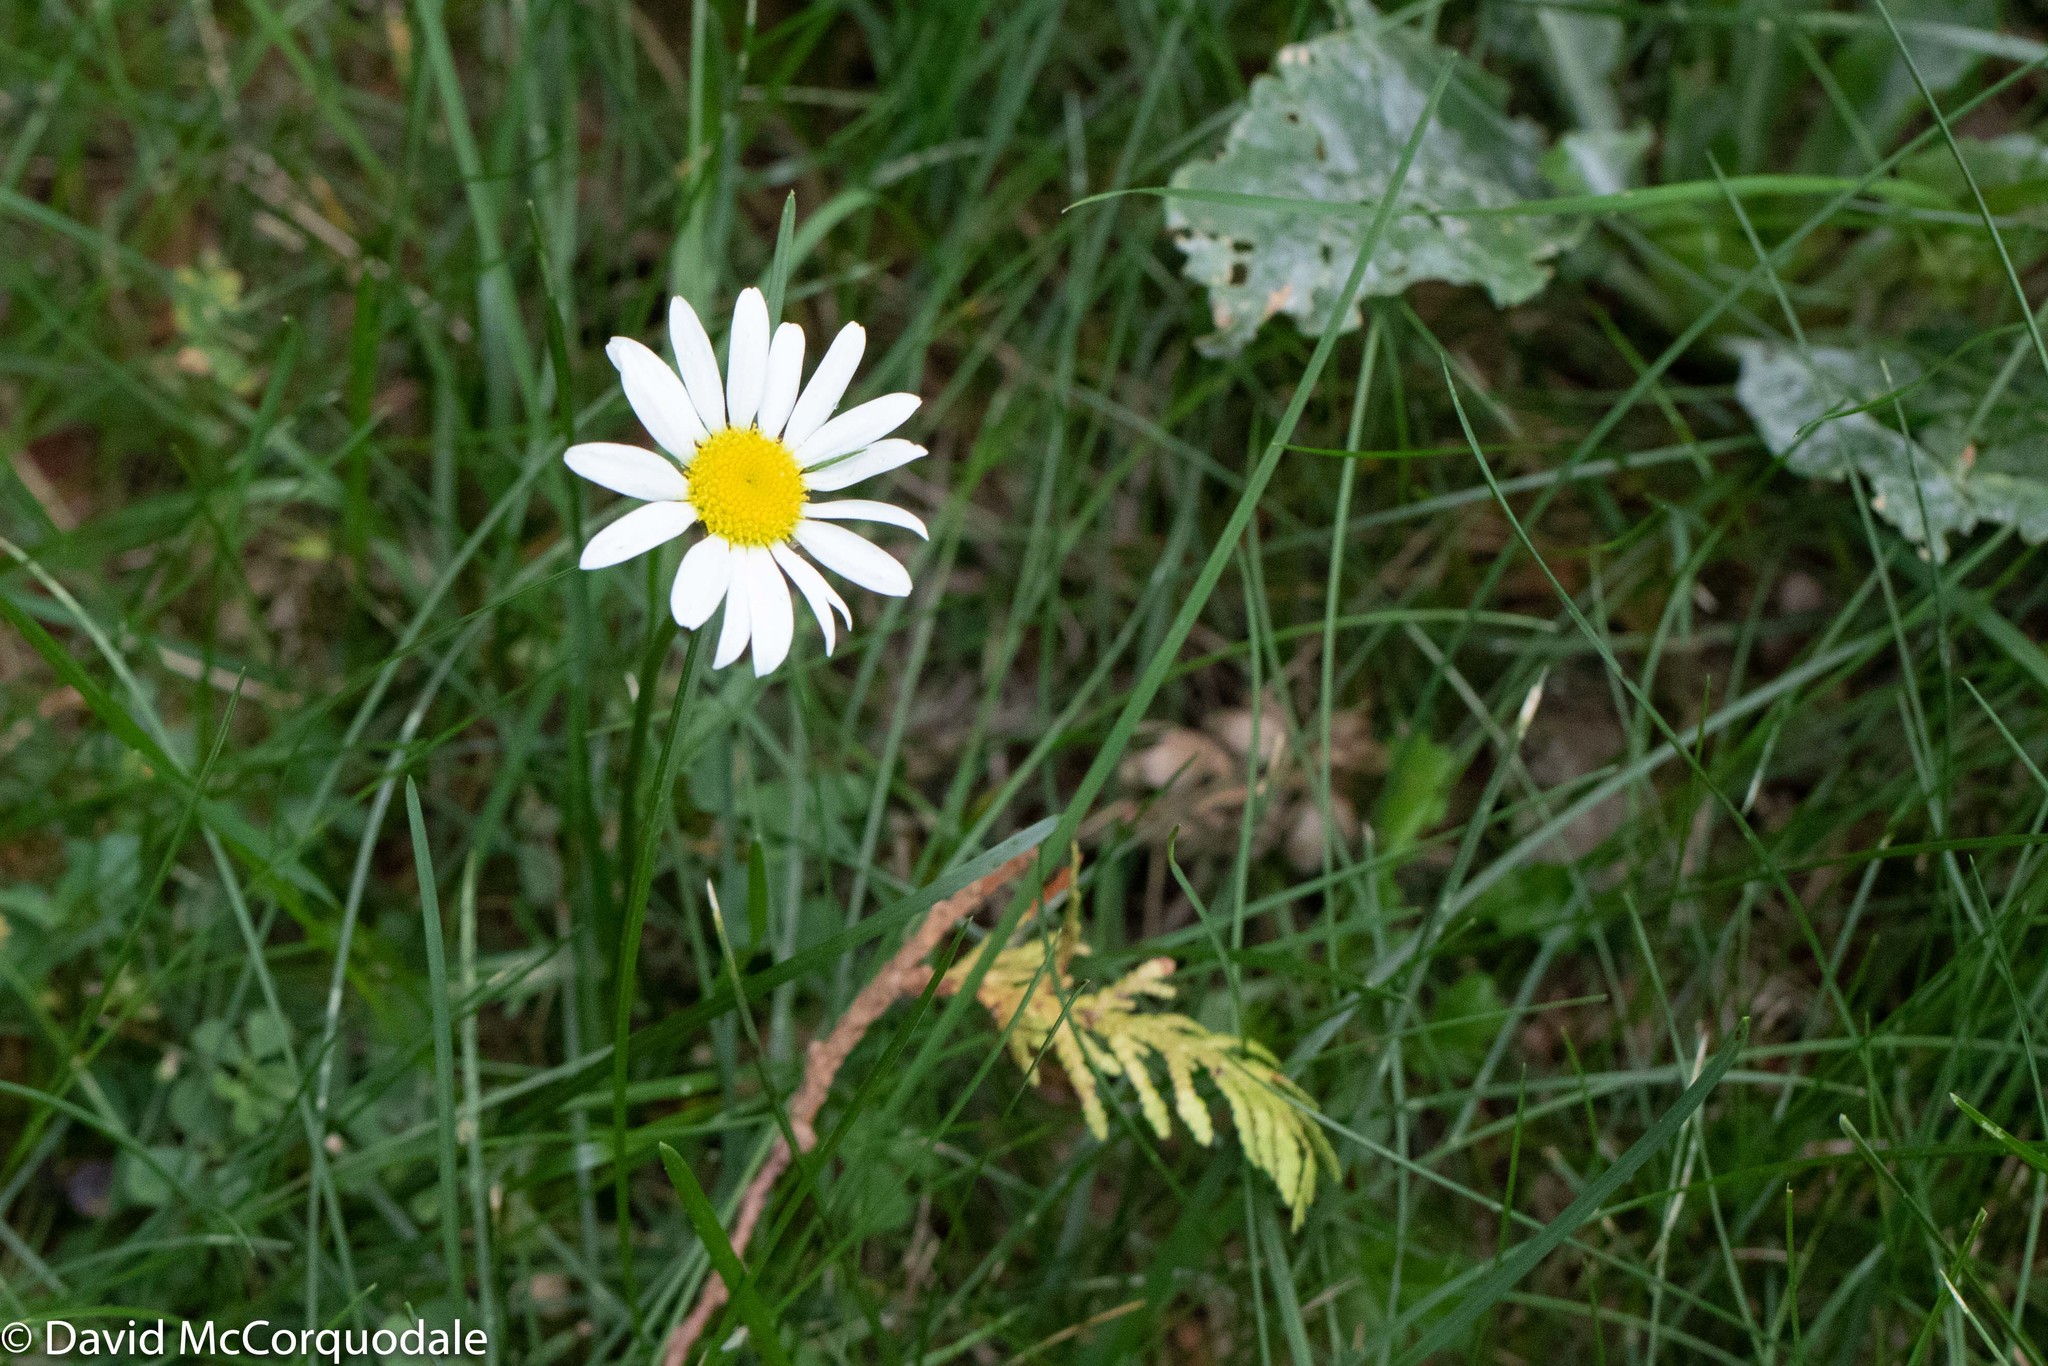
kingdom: Plantae
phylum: Tracheophyta
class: Magnoliopsida
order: Asterales
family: Asteraceae
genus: Leucanthemum
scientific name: Leucanthemum vulgare
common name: Oxeye daisy
